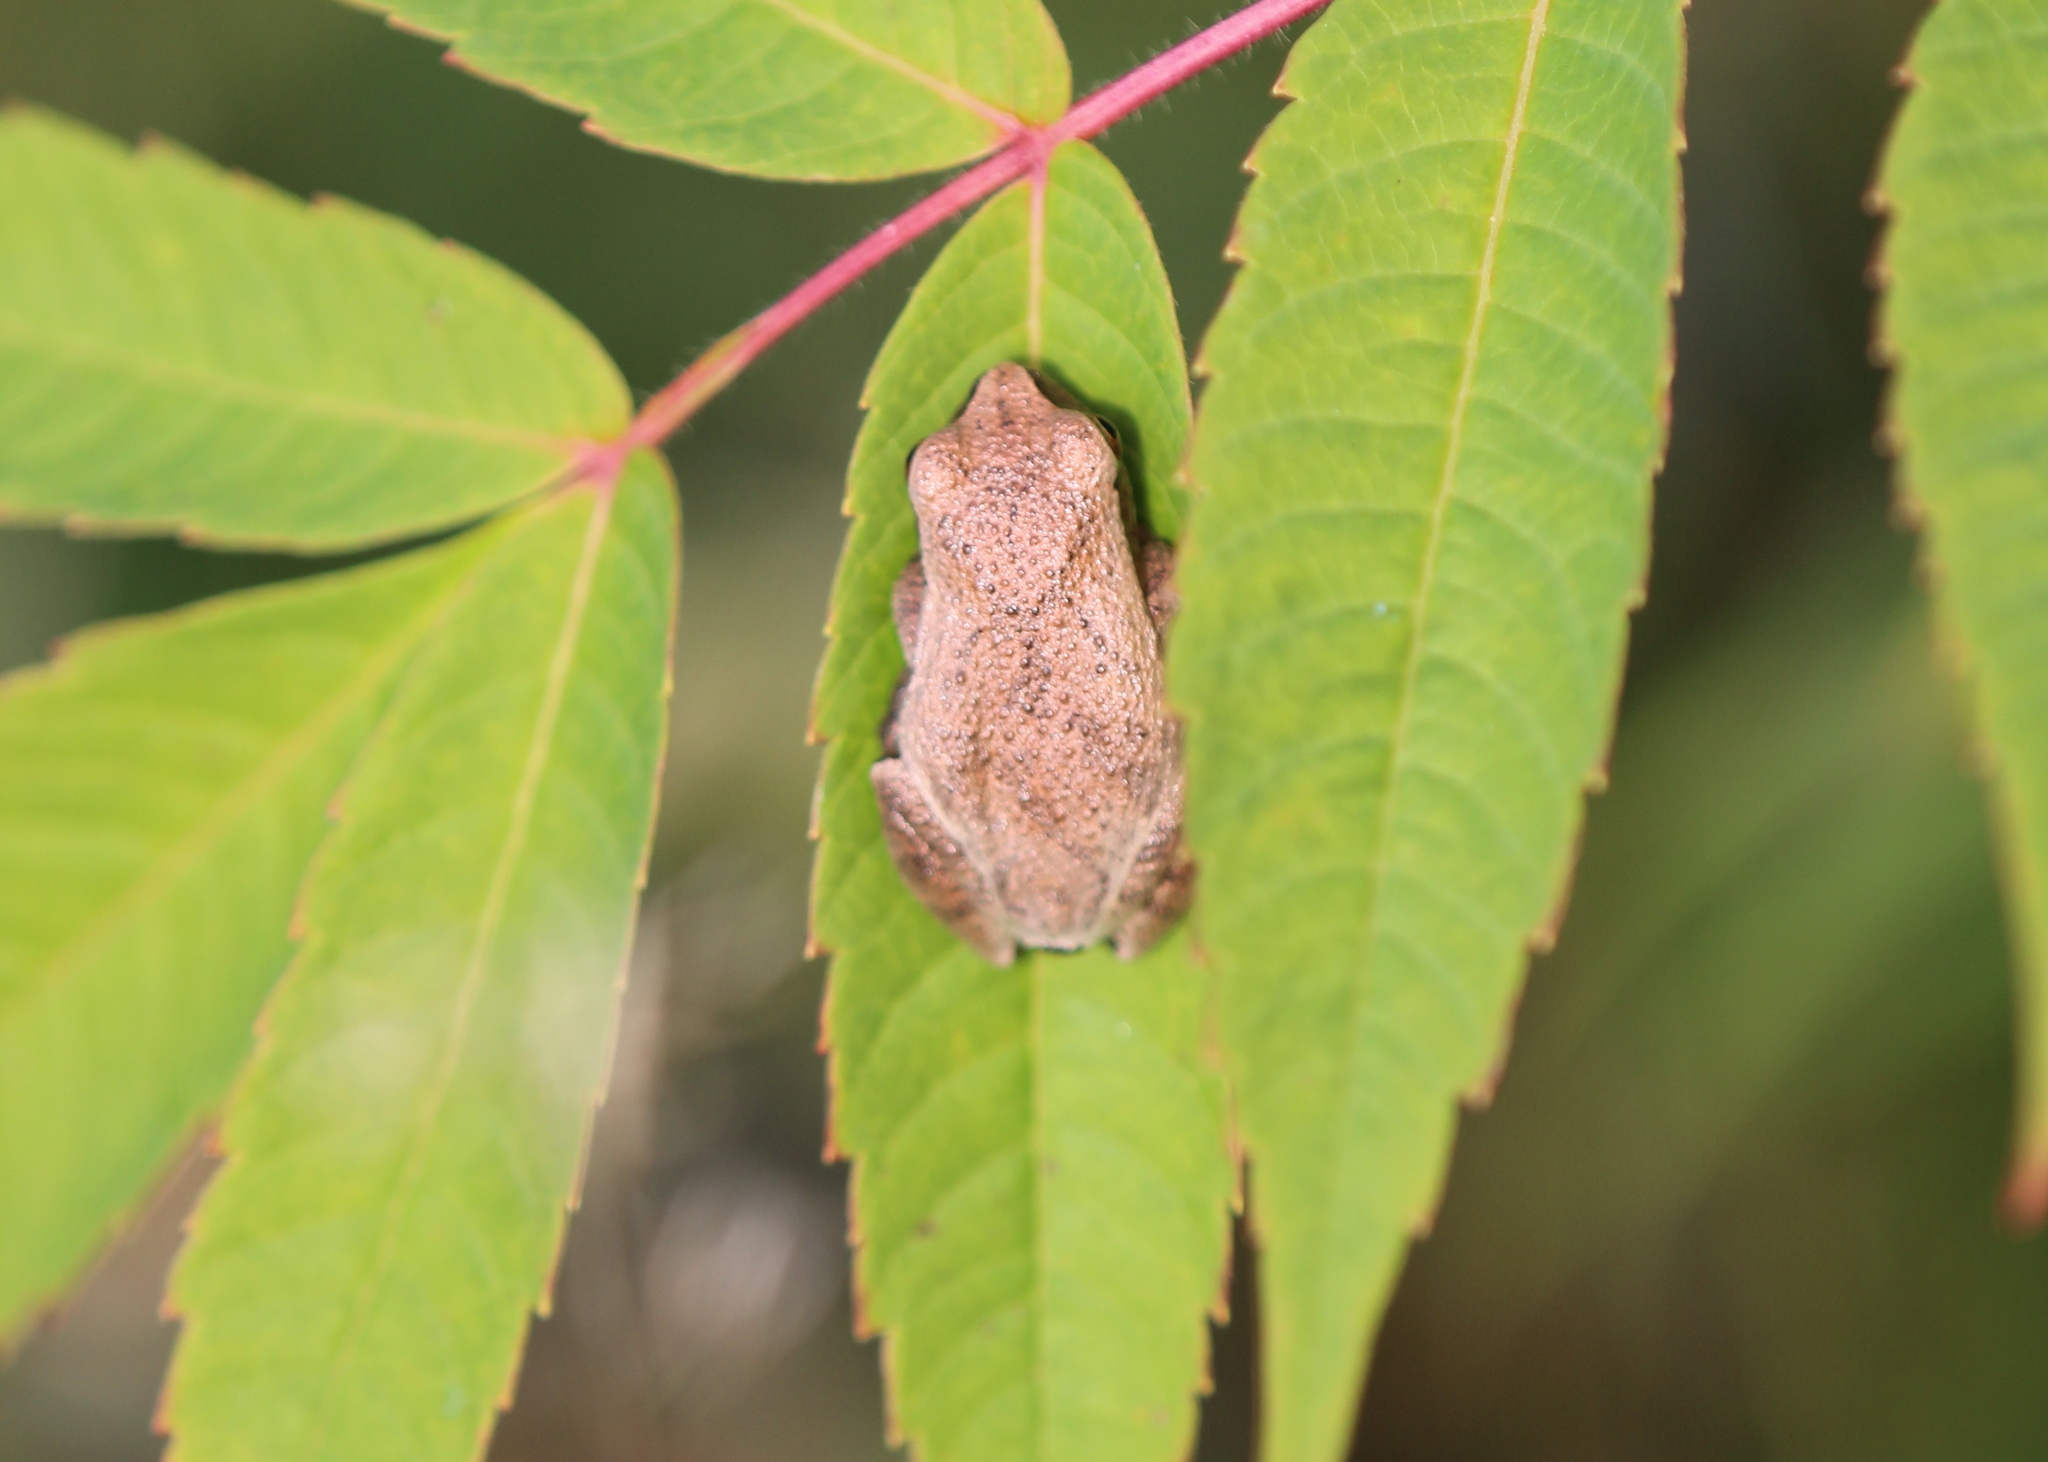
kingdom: Animalia
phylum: Chordata
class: Amphibia
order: Anura
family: Hylidae
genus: Pseudacris
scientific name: Pseudacris crucifer
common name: Spring peeper
